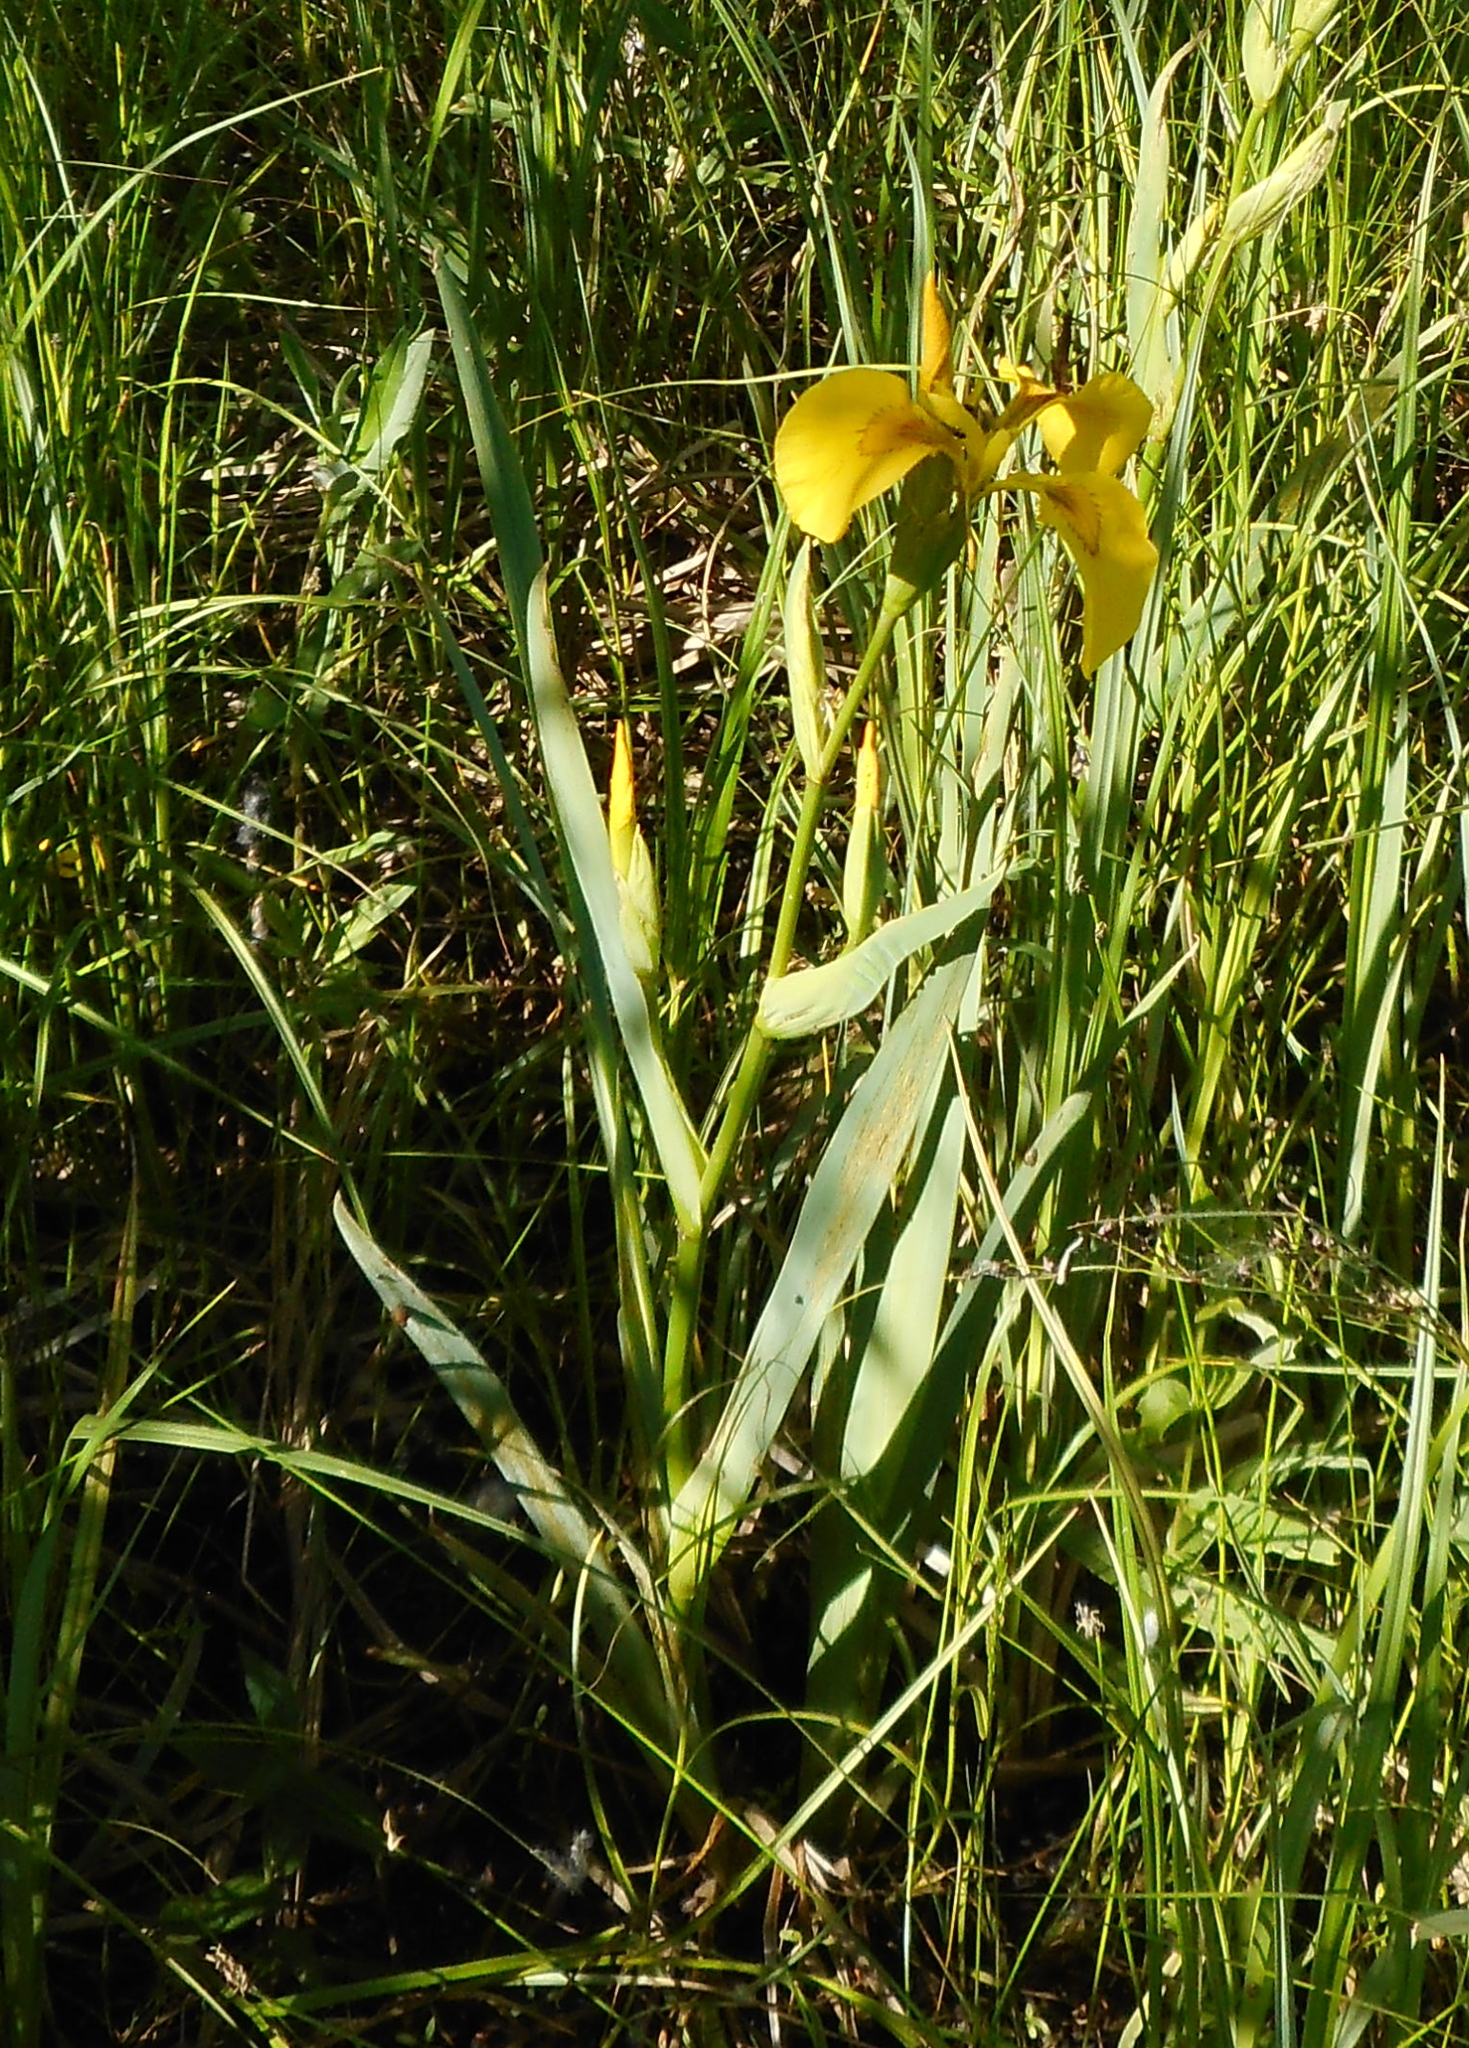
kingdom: Plantae
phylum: Tracheophyta
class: Liliopsida
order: Asparagales
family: Iridaceae
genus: Iris
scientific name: Iris pseudacorus
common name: Yellow flag
